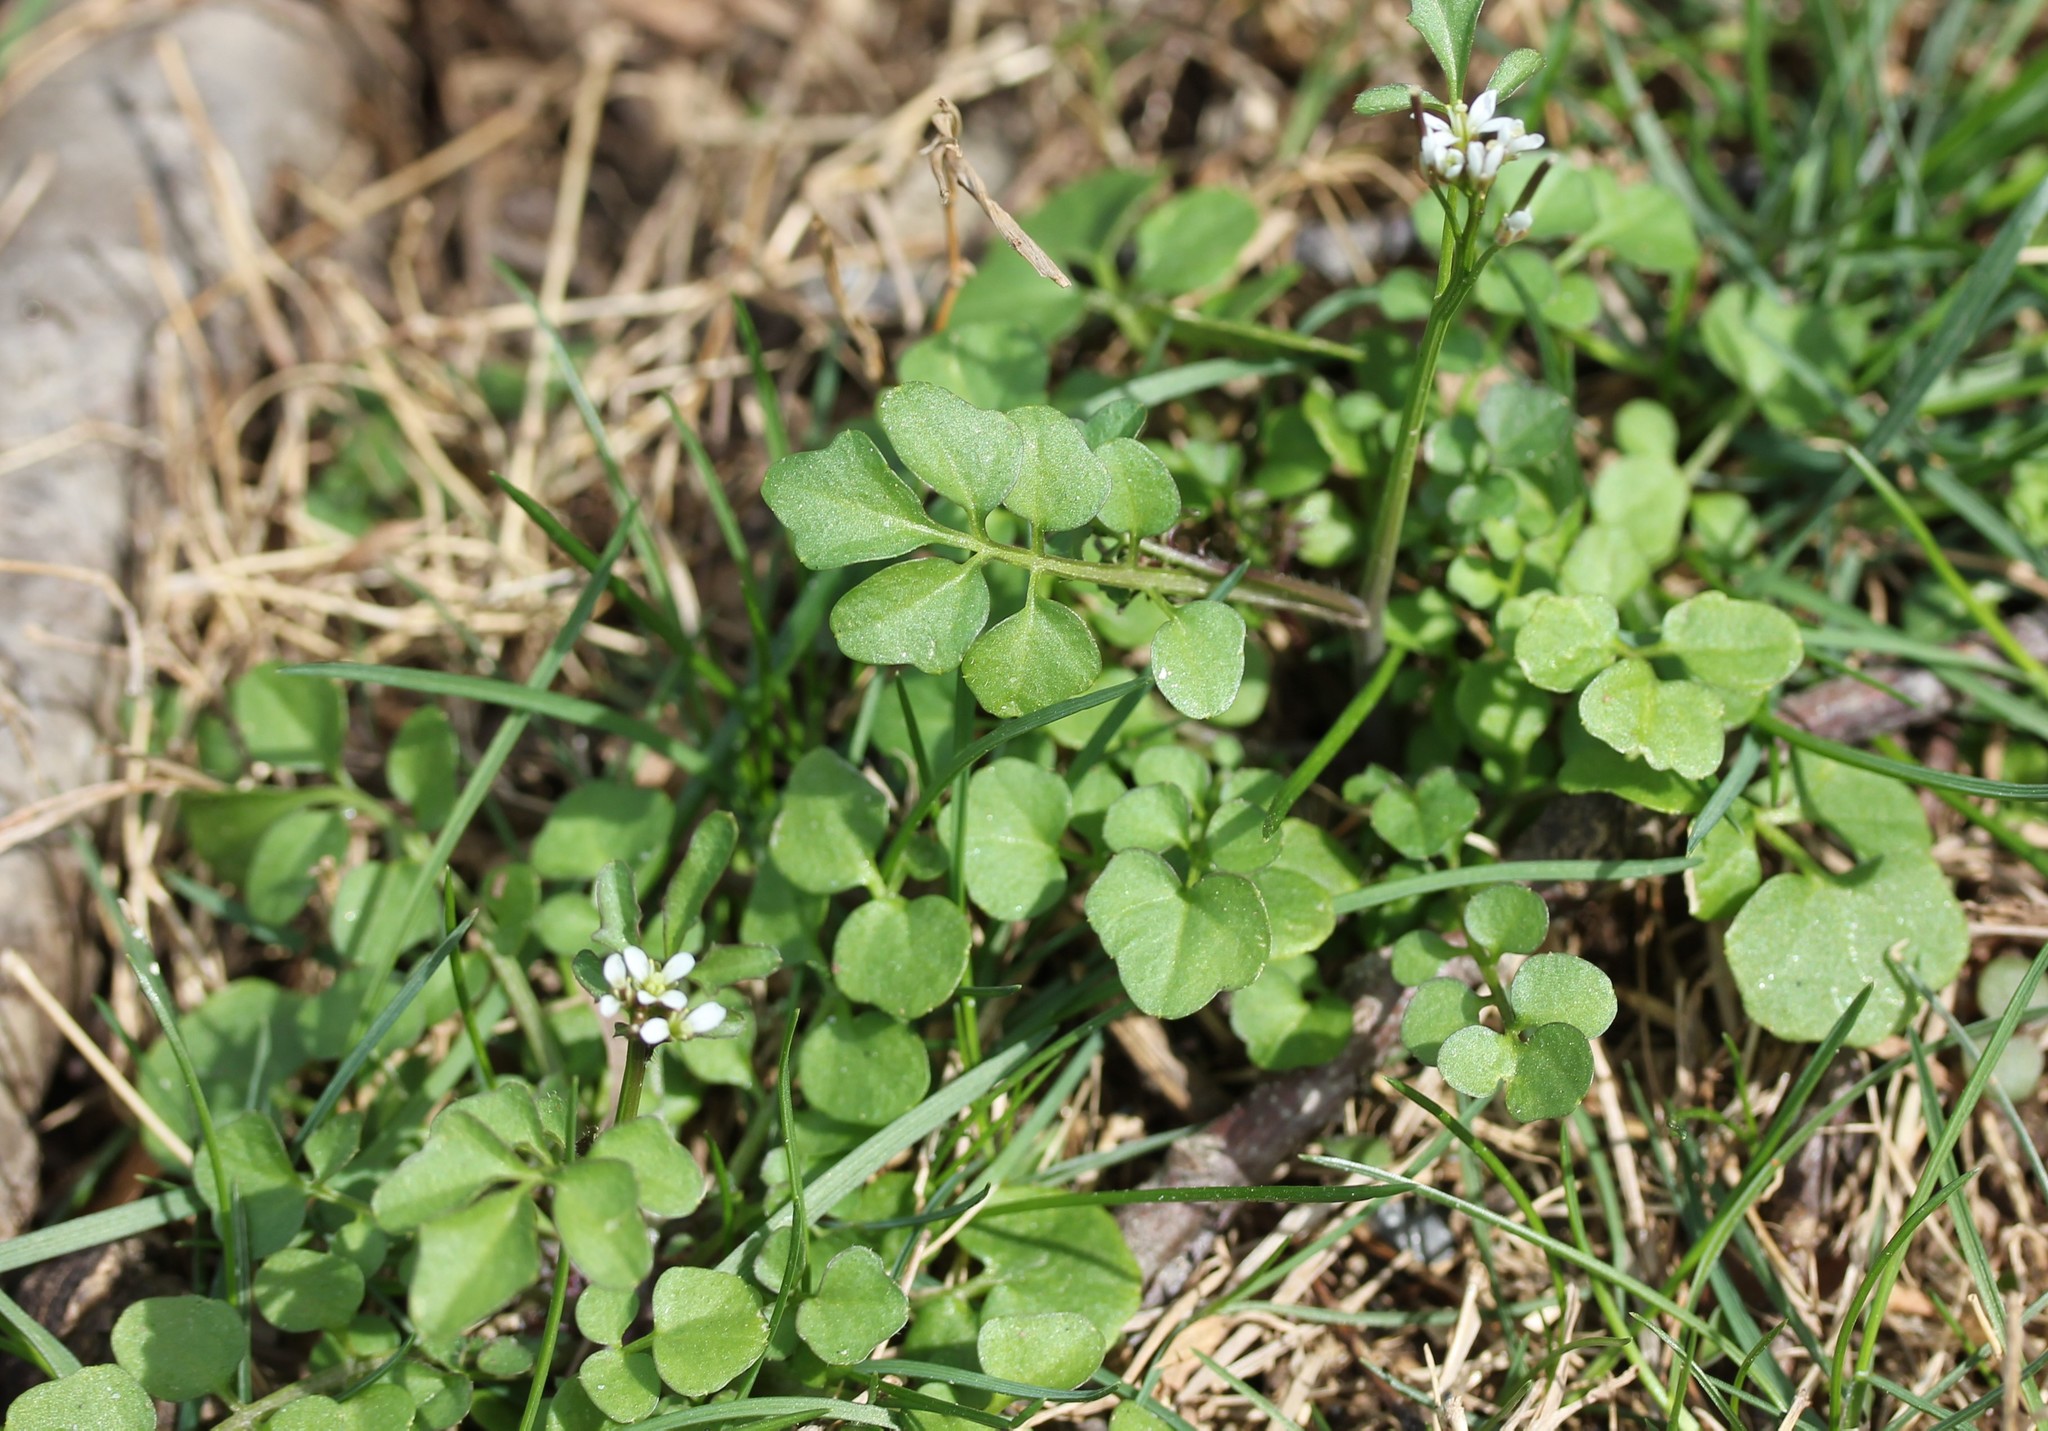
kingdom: Plantae
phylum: Tracheophyta
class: Magnoliopsida
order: Brassicales
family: Brassicaceae
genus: Cardamine
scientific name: Cardamine hirsuta
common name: Hairy bittercress
